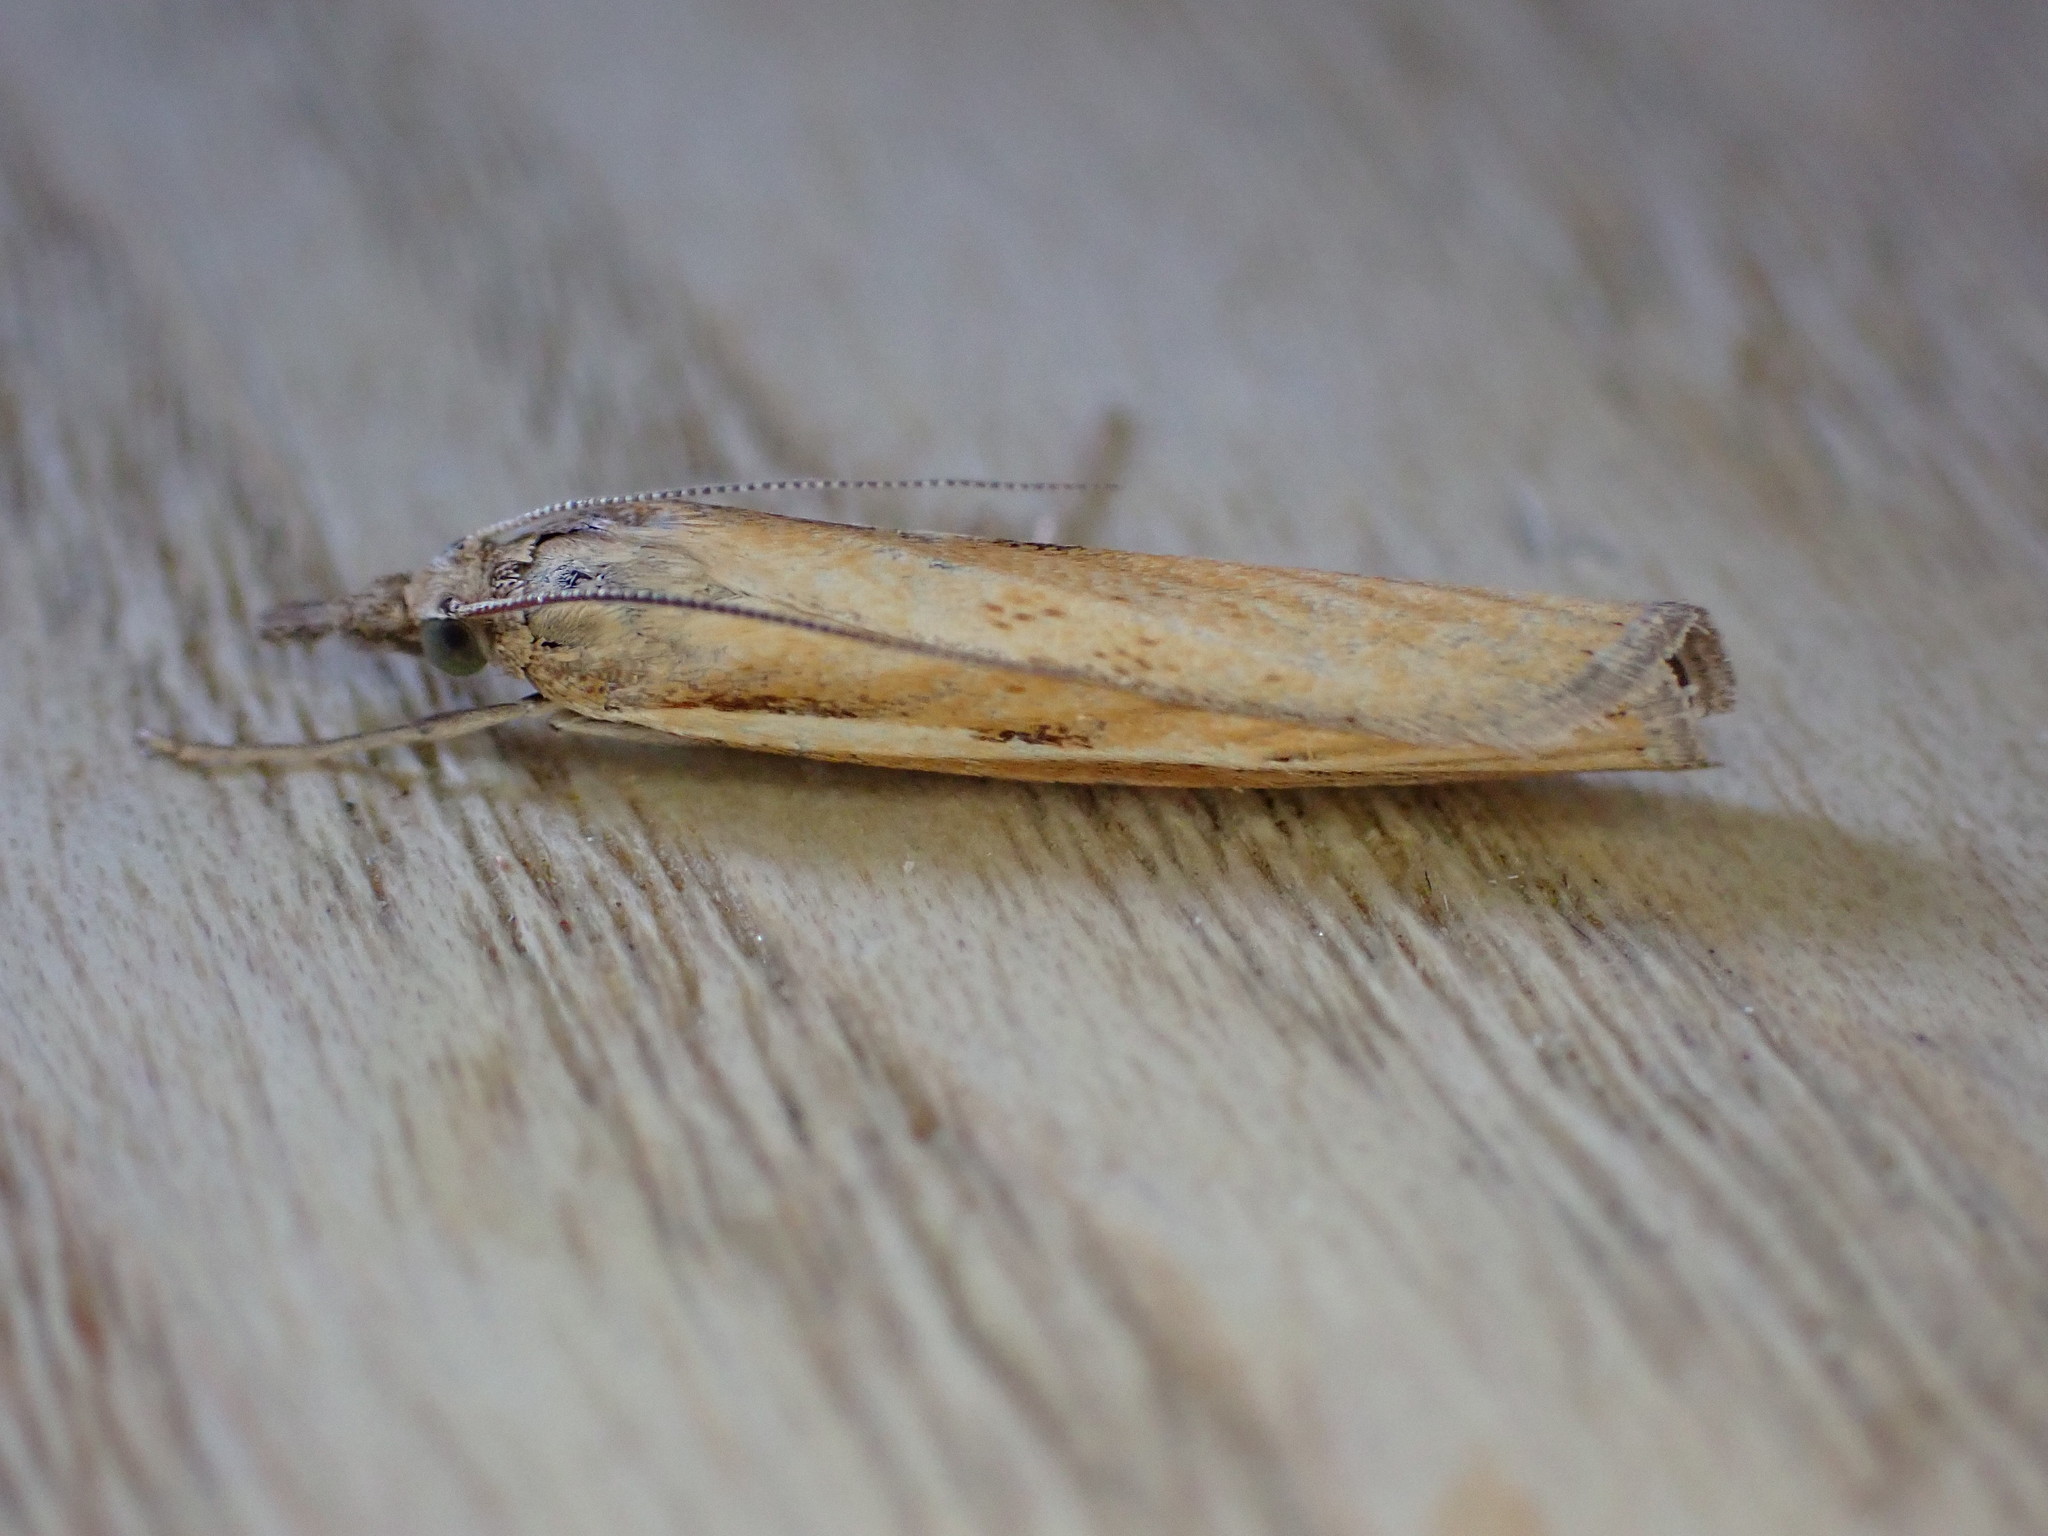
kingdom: Animalia
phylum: Arthropoda
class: Insecta
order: Lepidoptera
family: Crambidae
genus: Agriphila
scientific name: Agriphila tristellus
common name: Common grass-veneer
